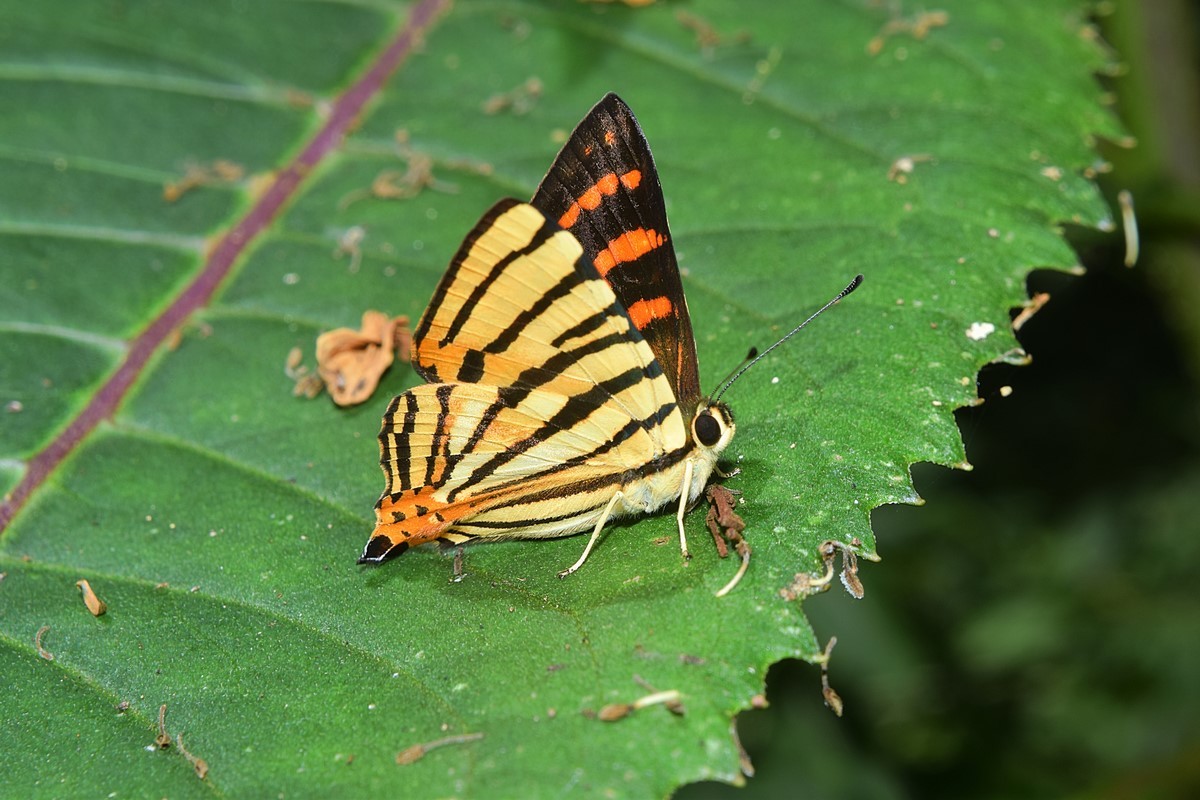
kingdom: Animalia
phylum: Arthropoda
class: Insecta
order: Lepidoptera
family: Lycaenidae
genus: Dodona
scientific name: Dodona adonira
